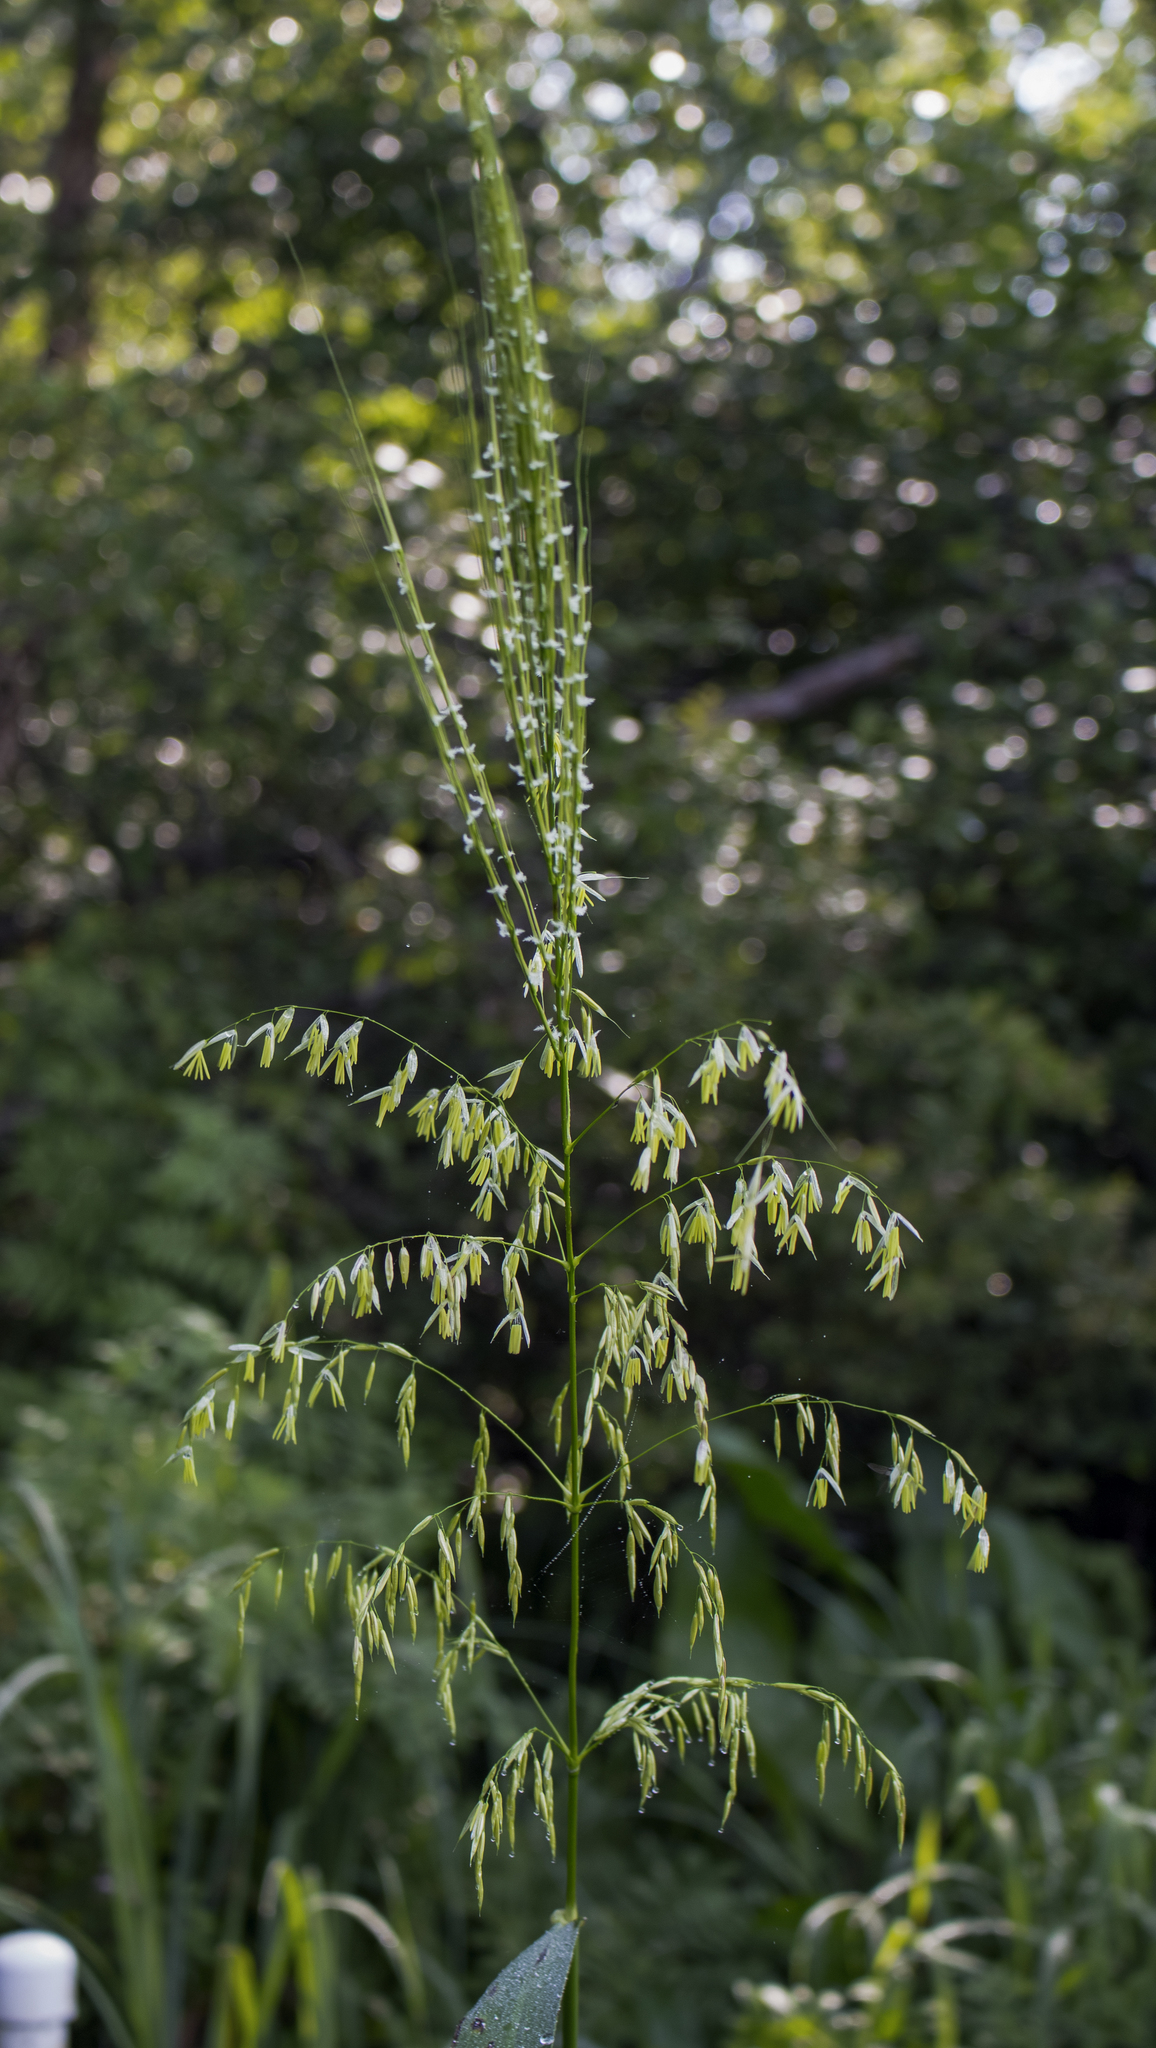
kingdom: Plantae
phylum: Tracheophyta
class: Liliopsida
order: Poales
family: Poaceae
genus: Zizania
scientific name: Zizania aquatica
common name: Annual wildrice
